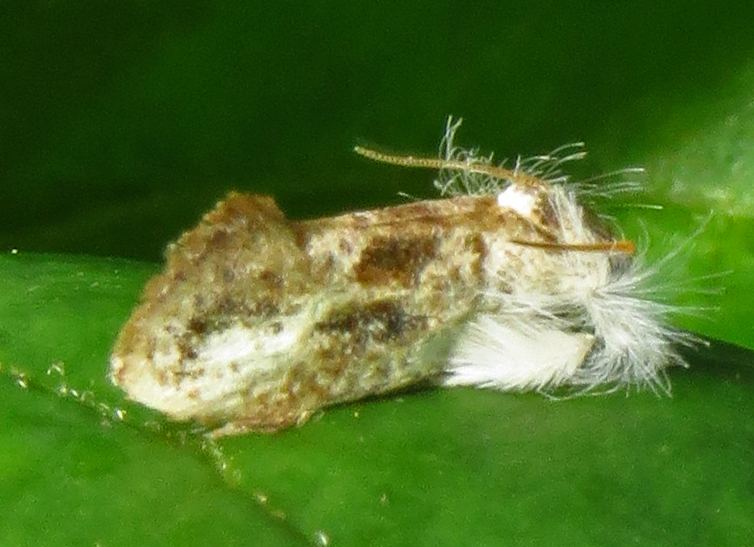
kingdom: Animalia
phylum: Arthropoda
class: Insecta
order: Lepidoptera
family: Tineidae
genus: Acrolophus
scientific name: Acrolophus mycetophagus
